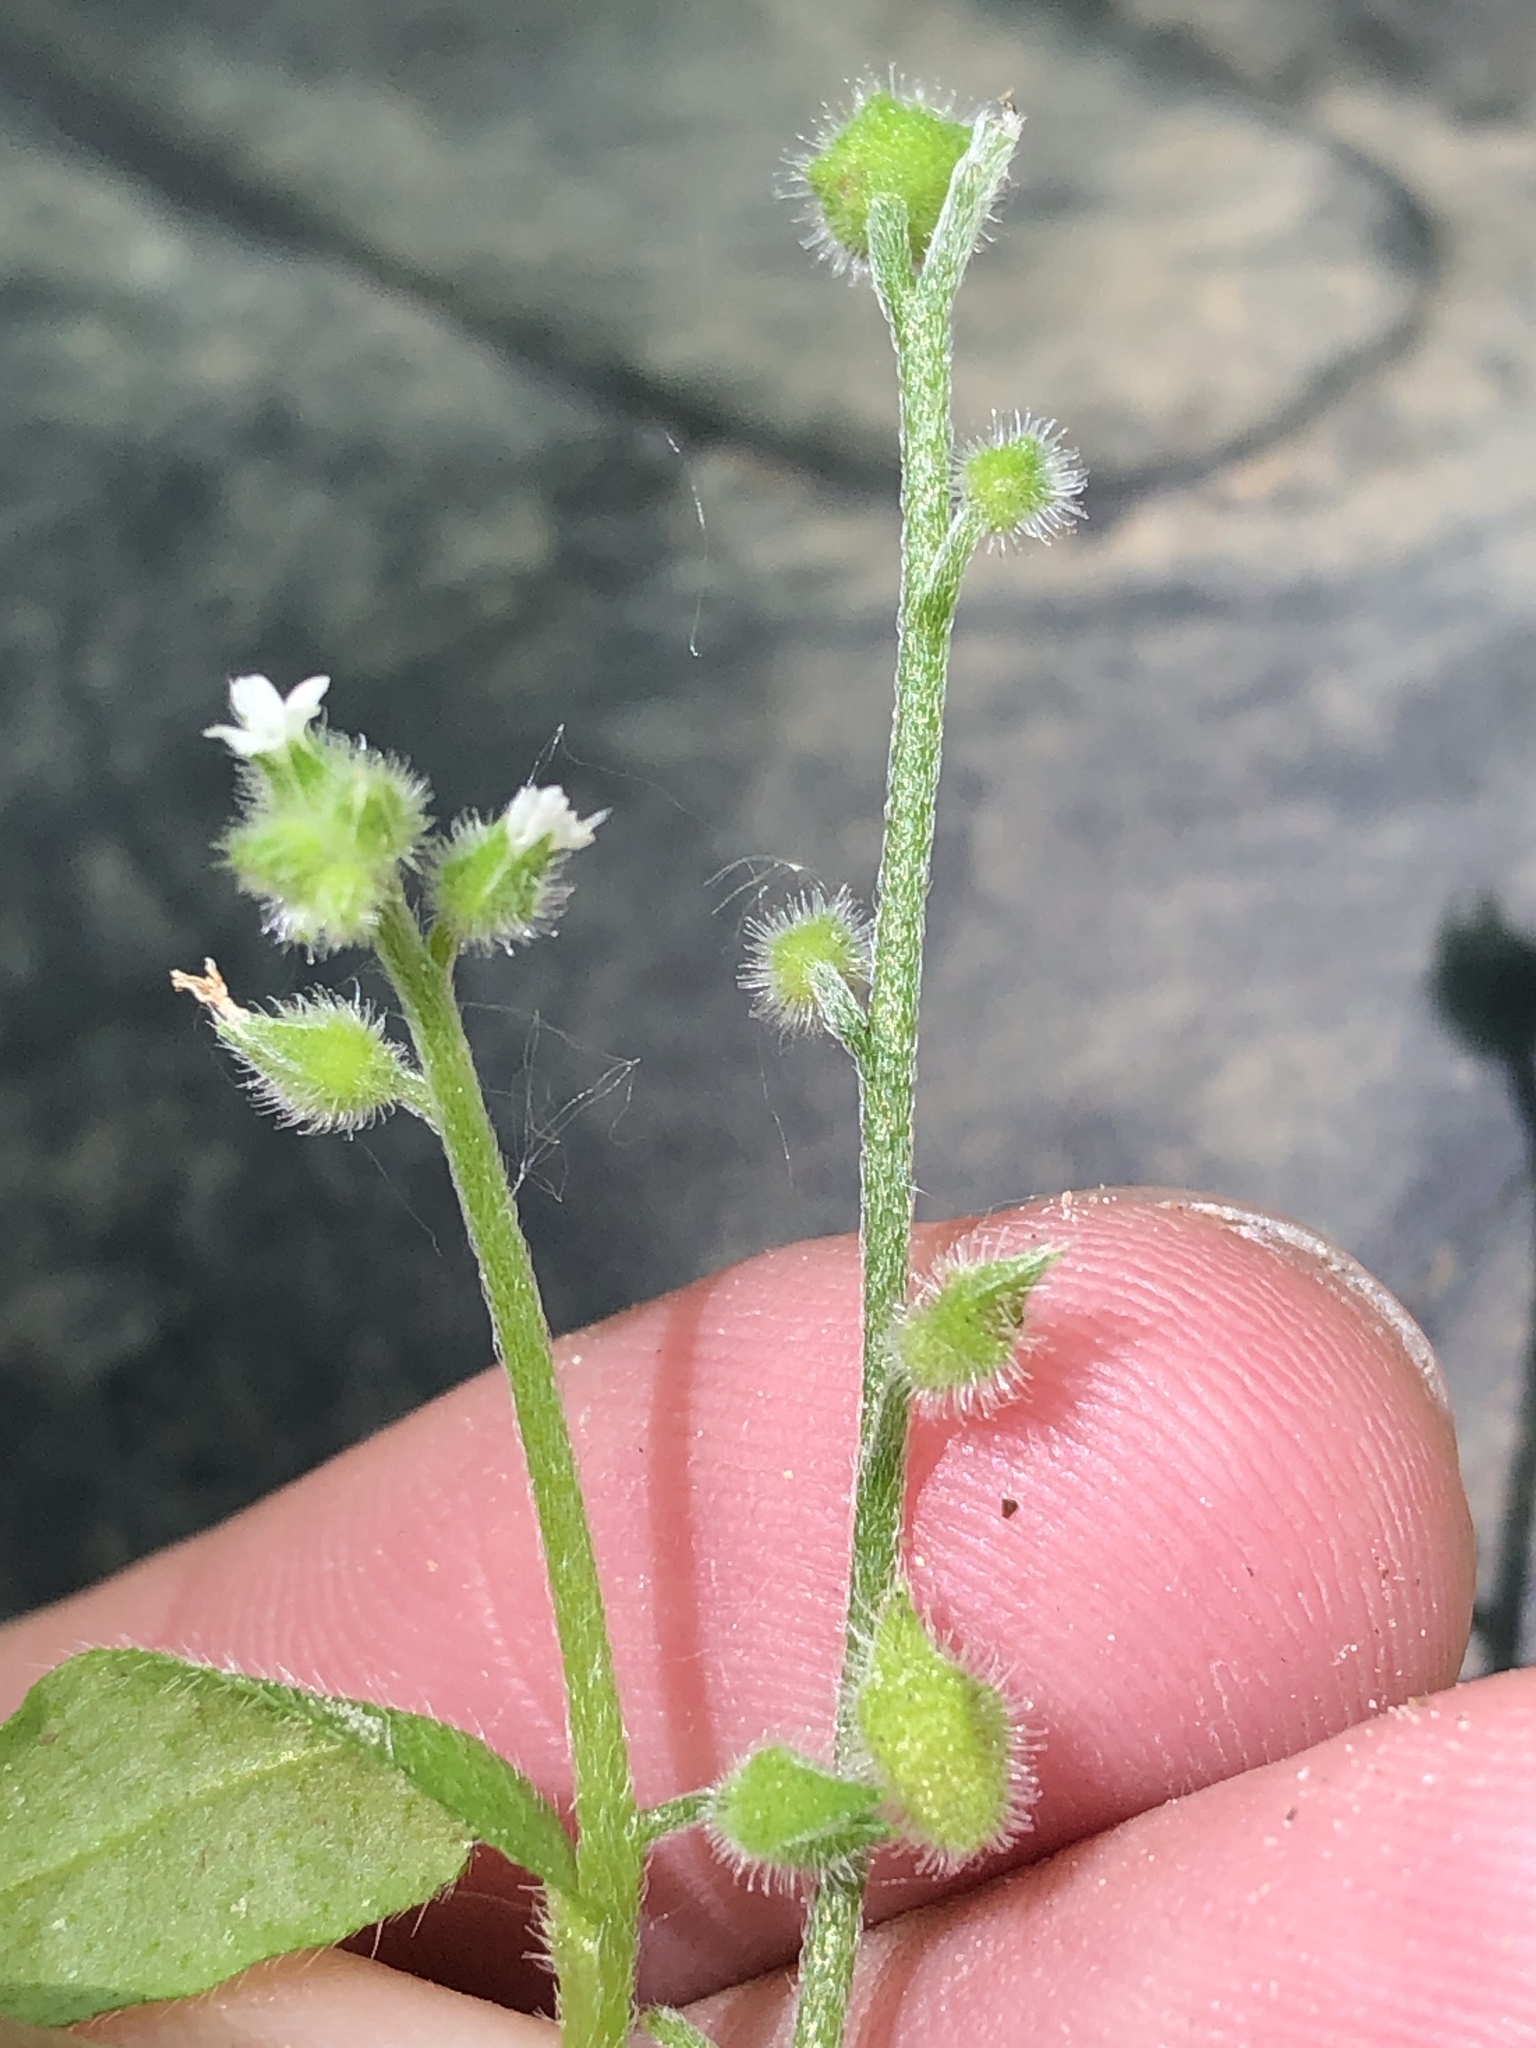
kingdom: Plantae
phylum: Tracheophyta
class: Magnoliopsida
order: Boraginales
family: Boraginaceae
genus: Myosotis
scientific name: Myosotis macrosperma
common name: Large-seed forget-me-not
